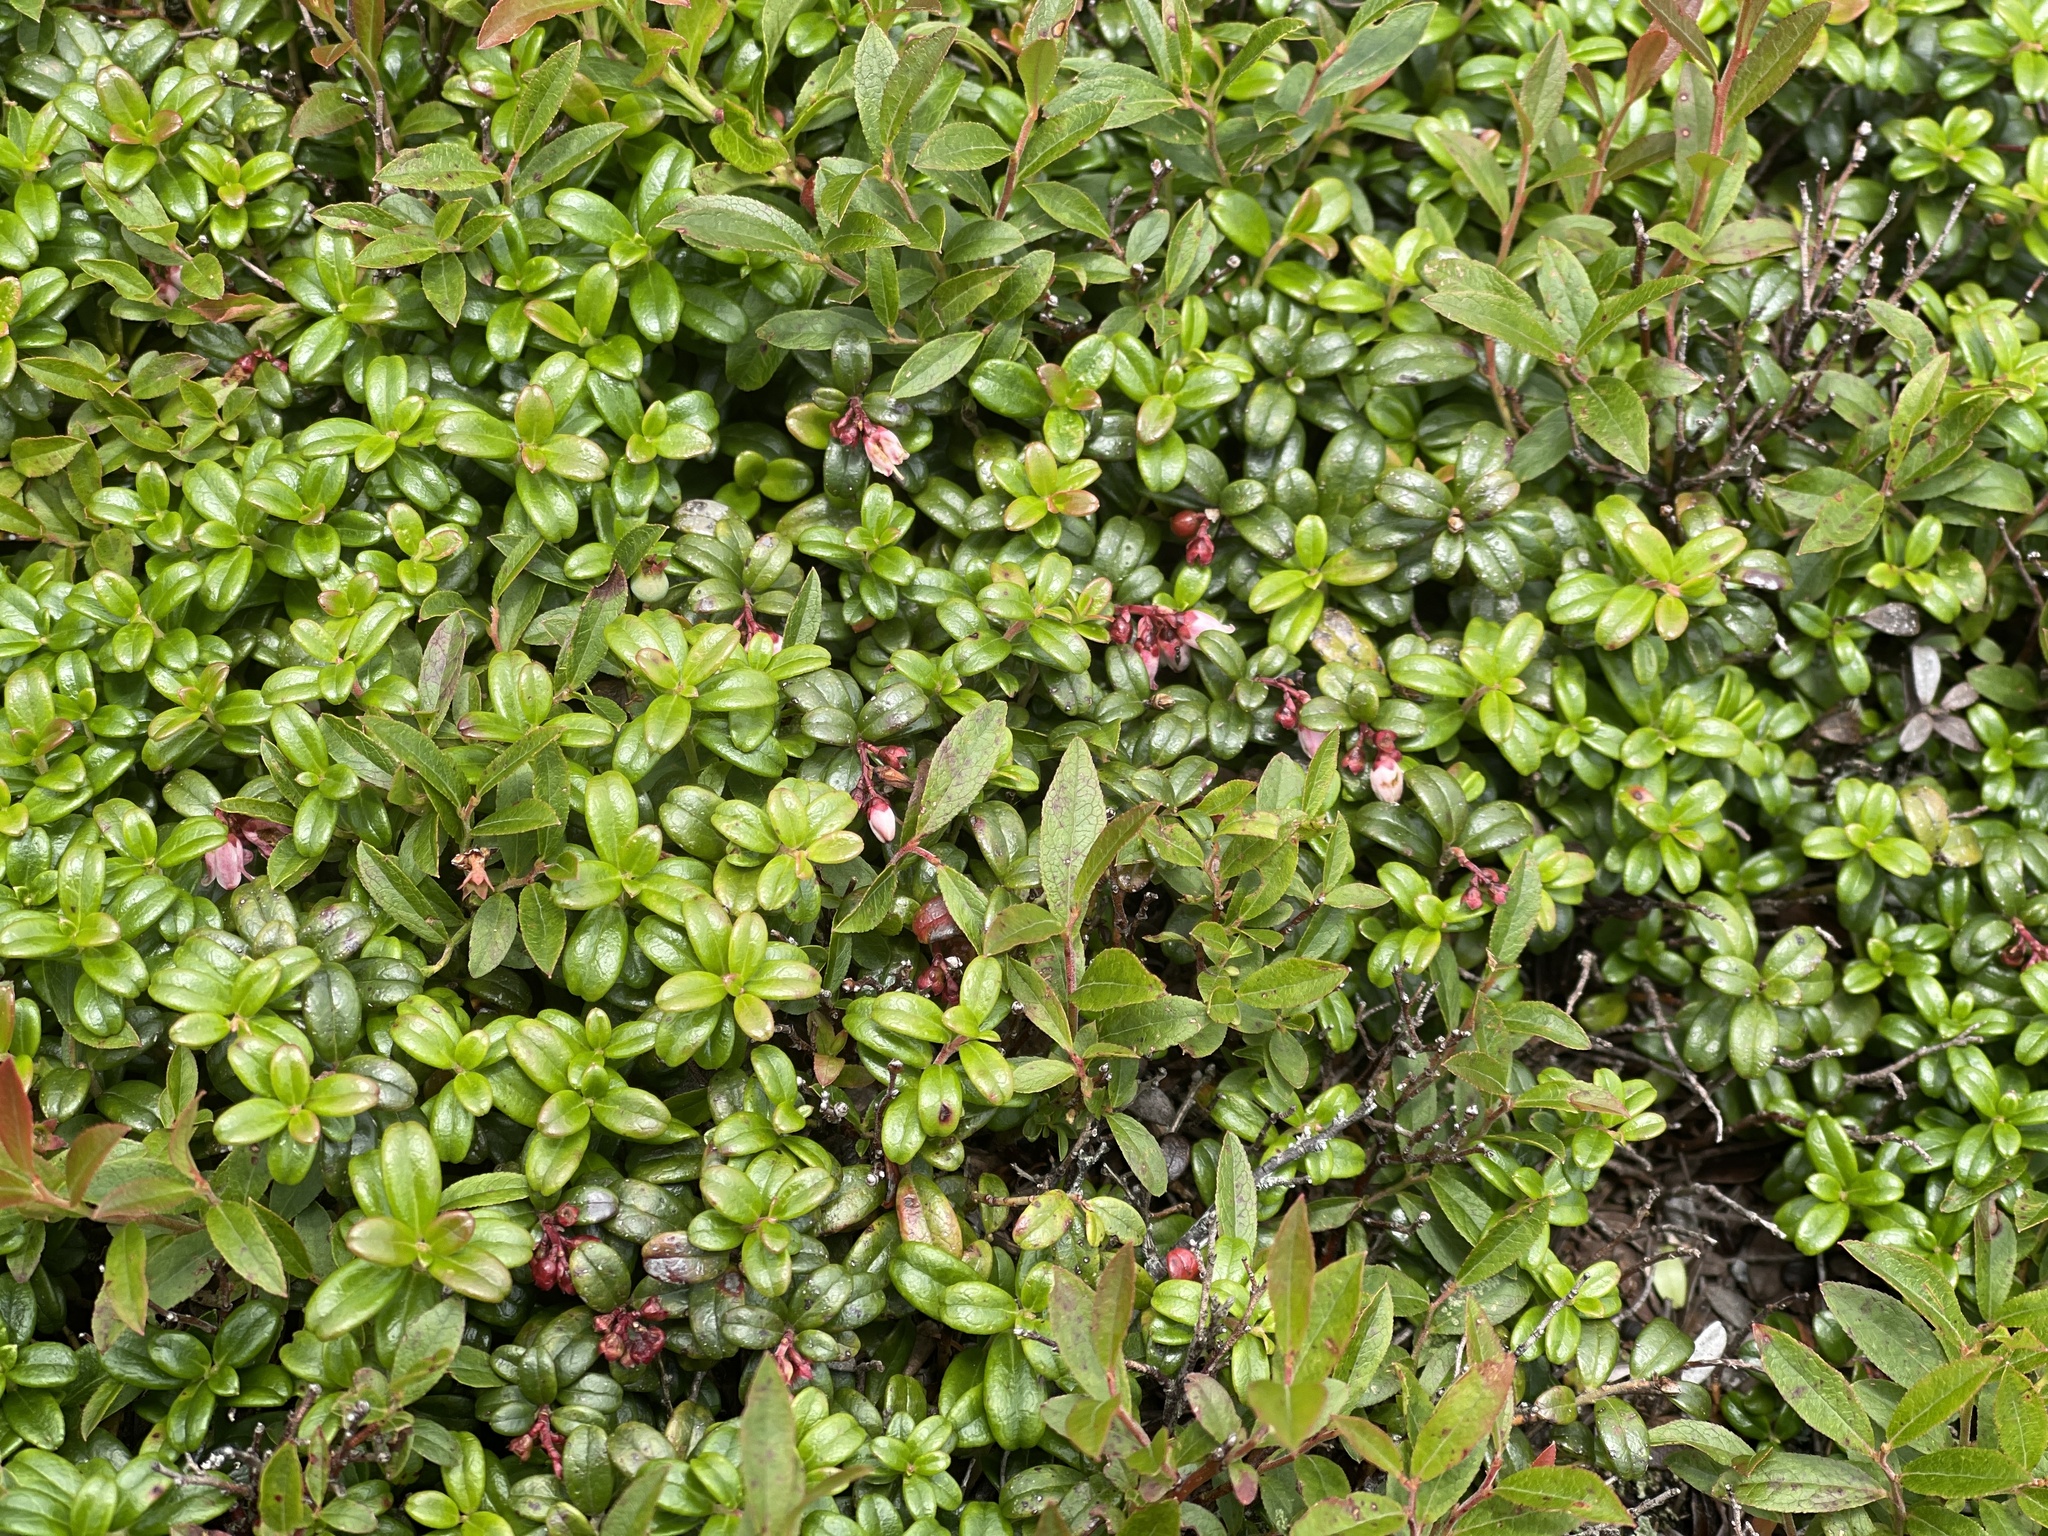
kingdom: Plantae
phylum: Tracheophyta
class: Magnoliopsida
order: Ericales
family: Ericaceae
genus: Vaccinium
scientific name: Vaccinium vitis-idaea
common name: Cowberry
